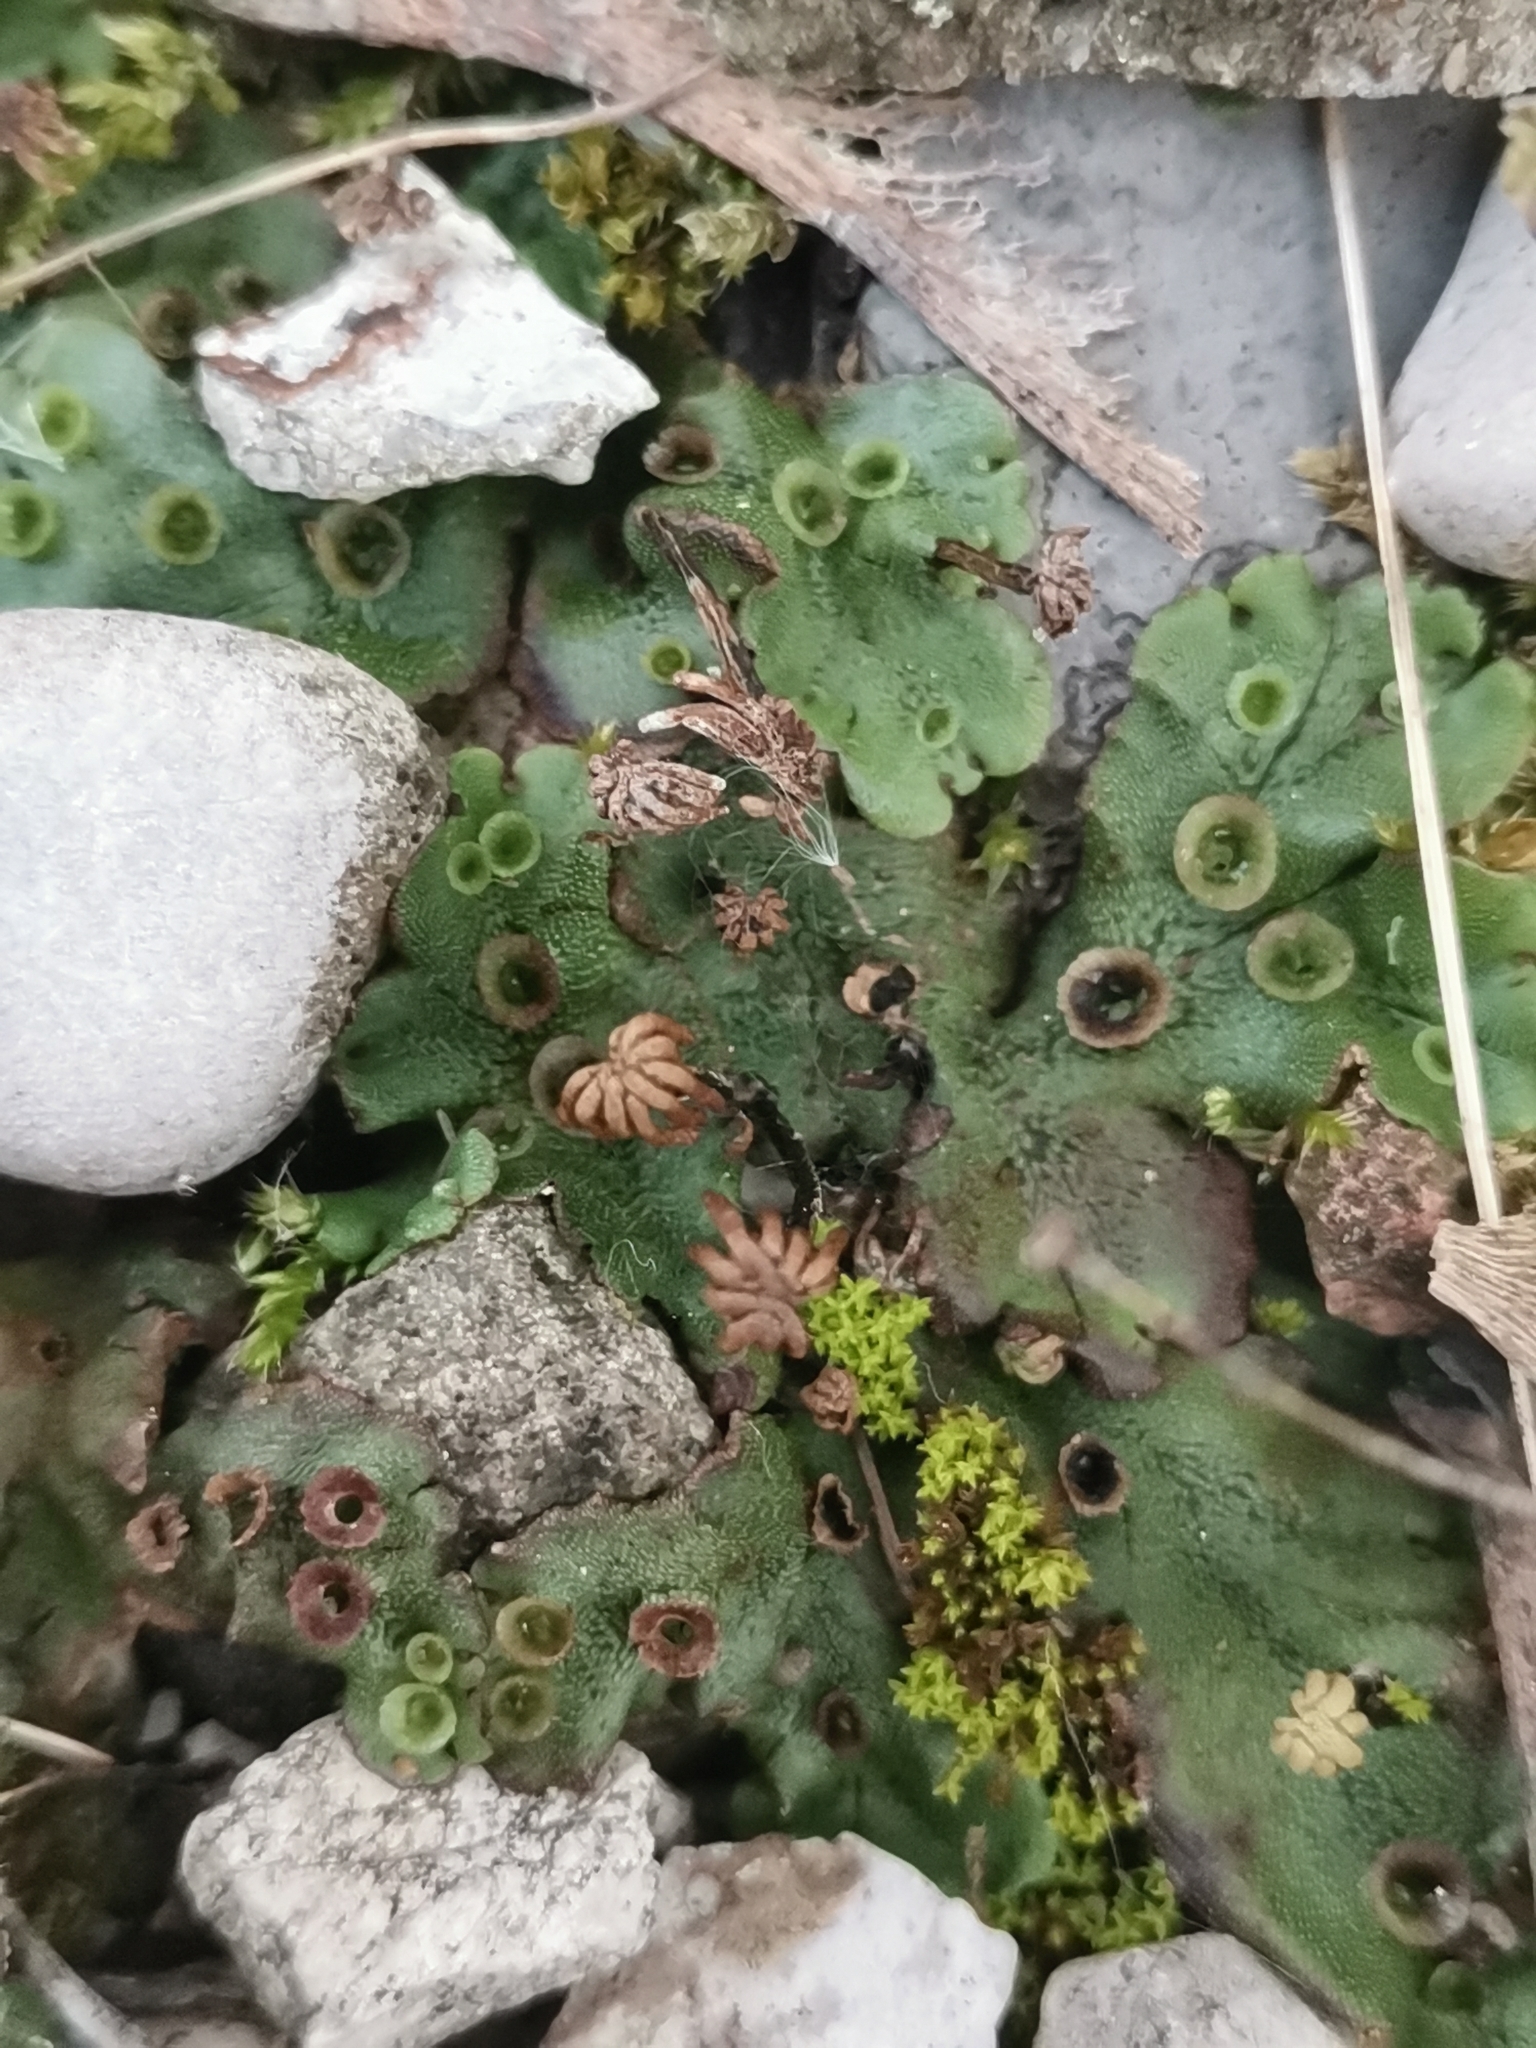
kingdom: Plantae
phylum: Marchantiophyta
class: Marchantiopsida
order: Marchantiales
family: Marchantiaceae
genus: Marchantia
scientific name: Marchantia polymorpha
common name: Common liverwort
